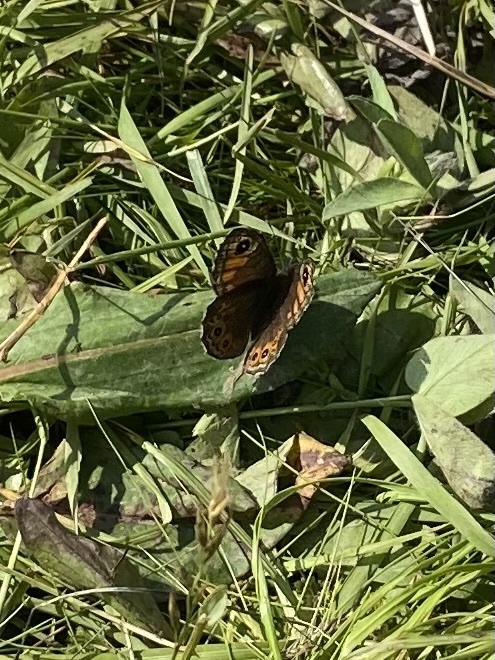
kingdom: Animalia
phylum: Arthropoda
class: Insecta
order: Lepidoptera
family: Nymphalidae
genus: Pararge
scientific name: Pararge petropolitana
